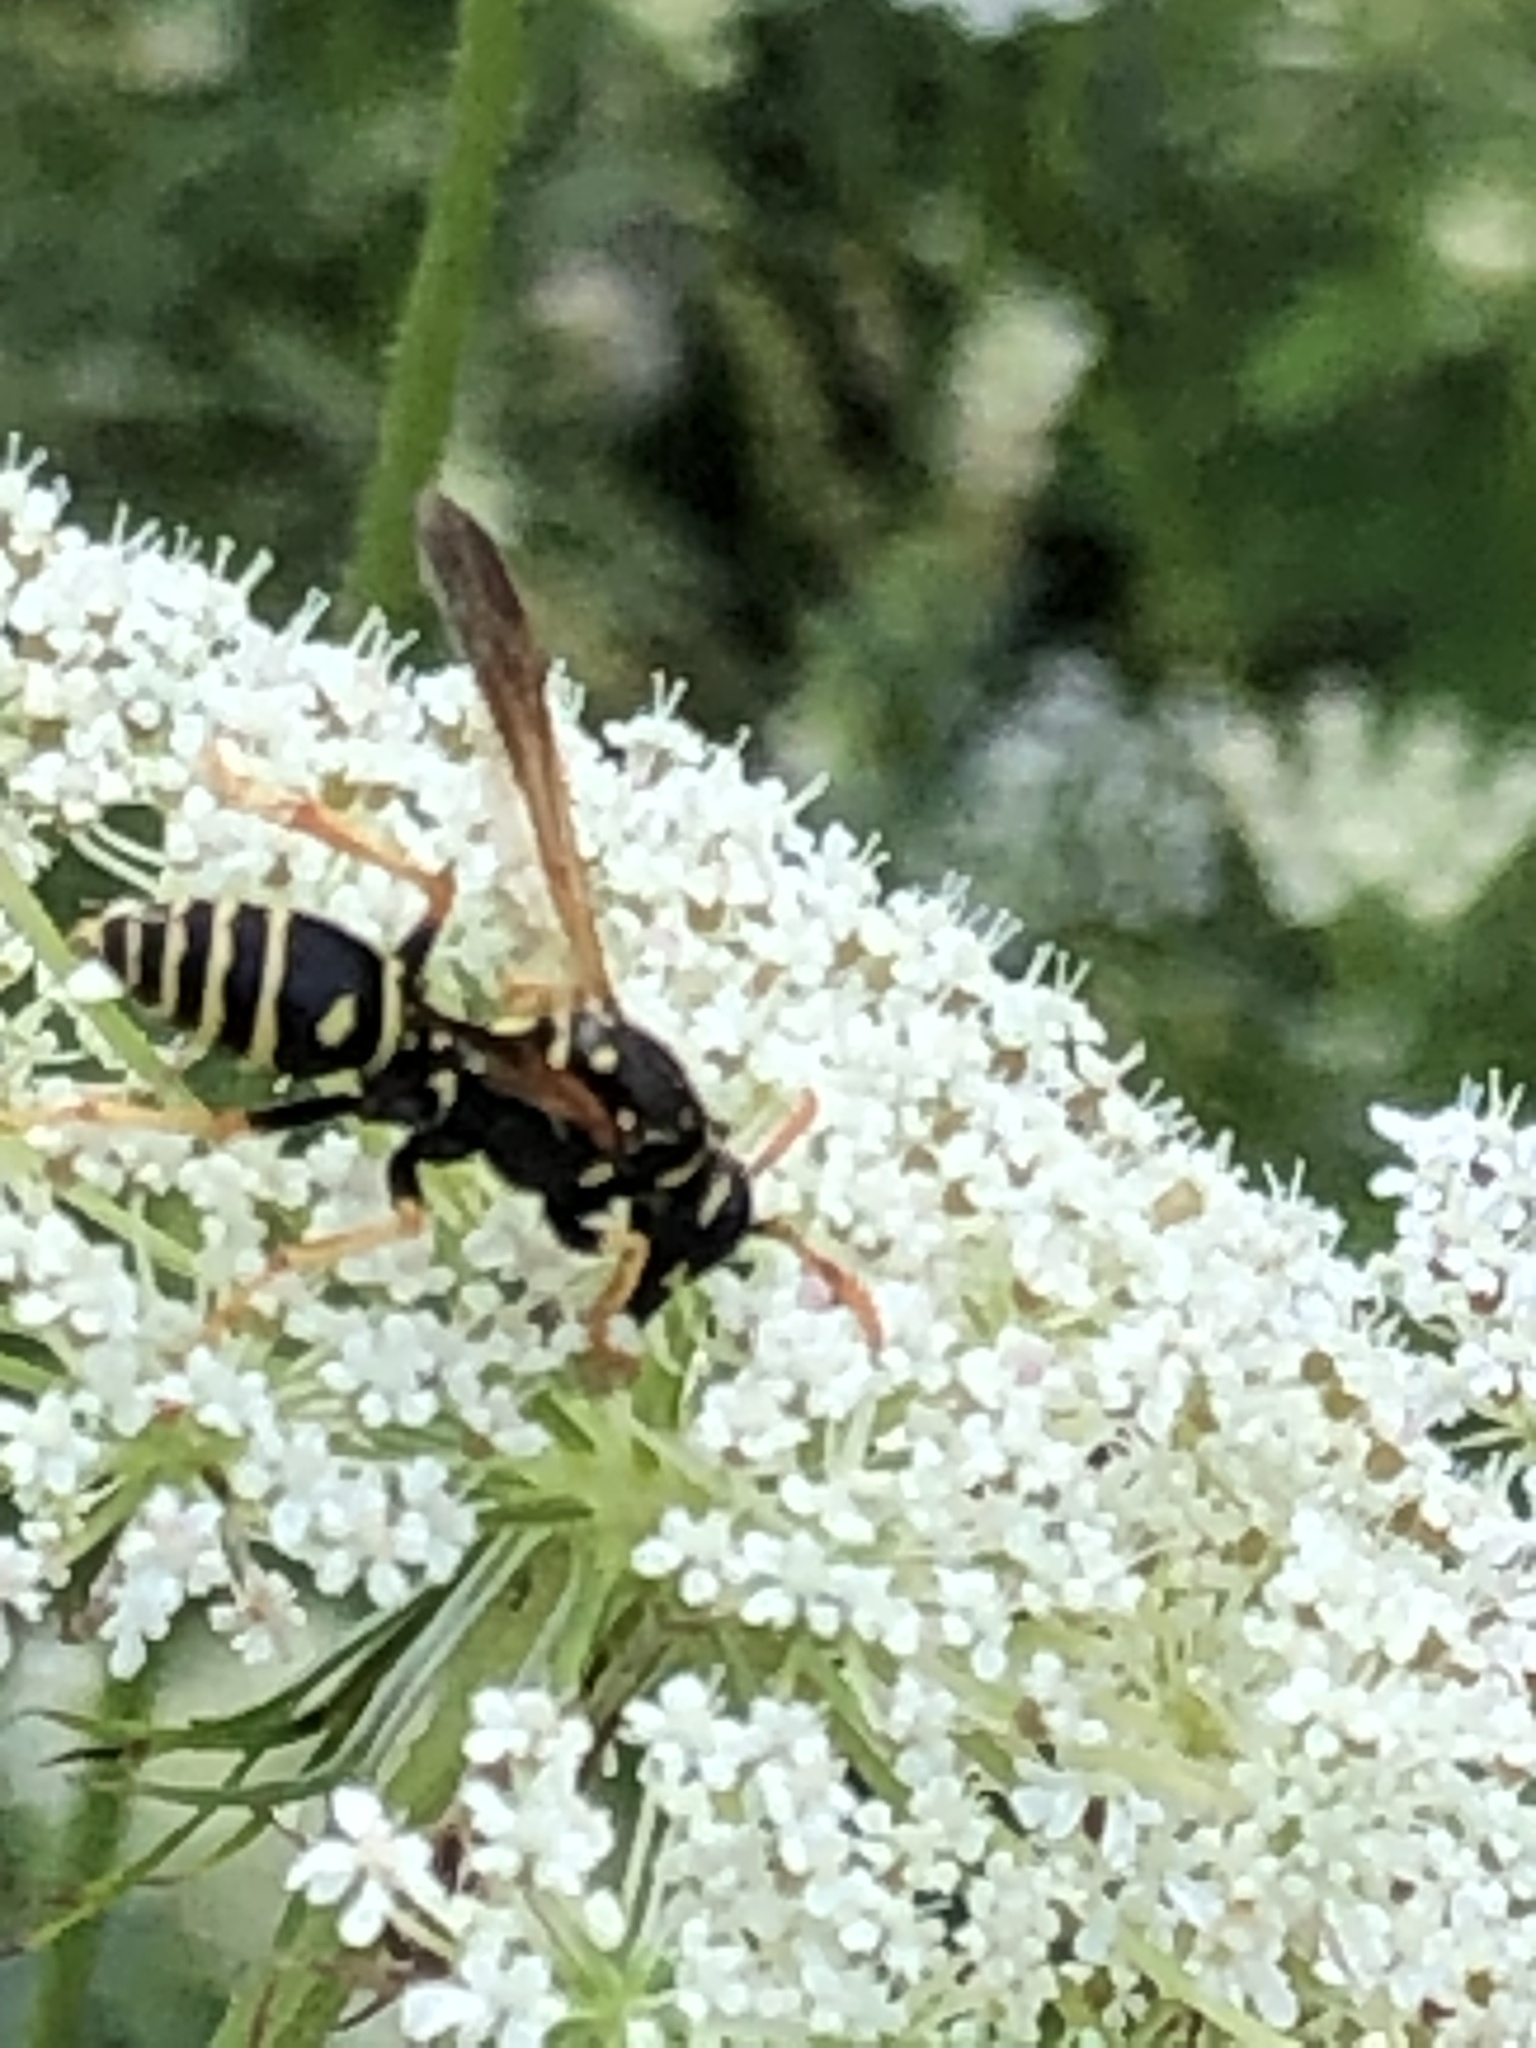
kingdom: Animalia
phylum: Arthropoda
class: Insecta
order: Hymenoptera
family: Eumenidae
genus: Polistes
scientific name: Polistes dominula
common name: Paper wasp
